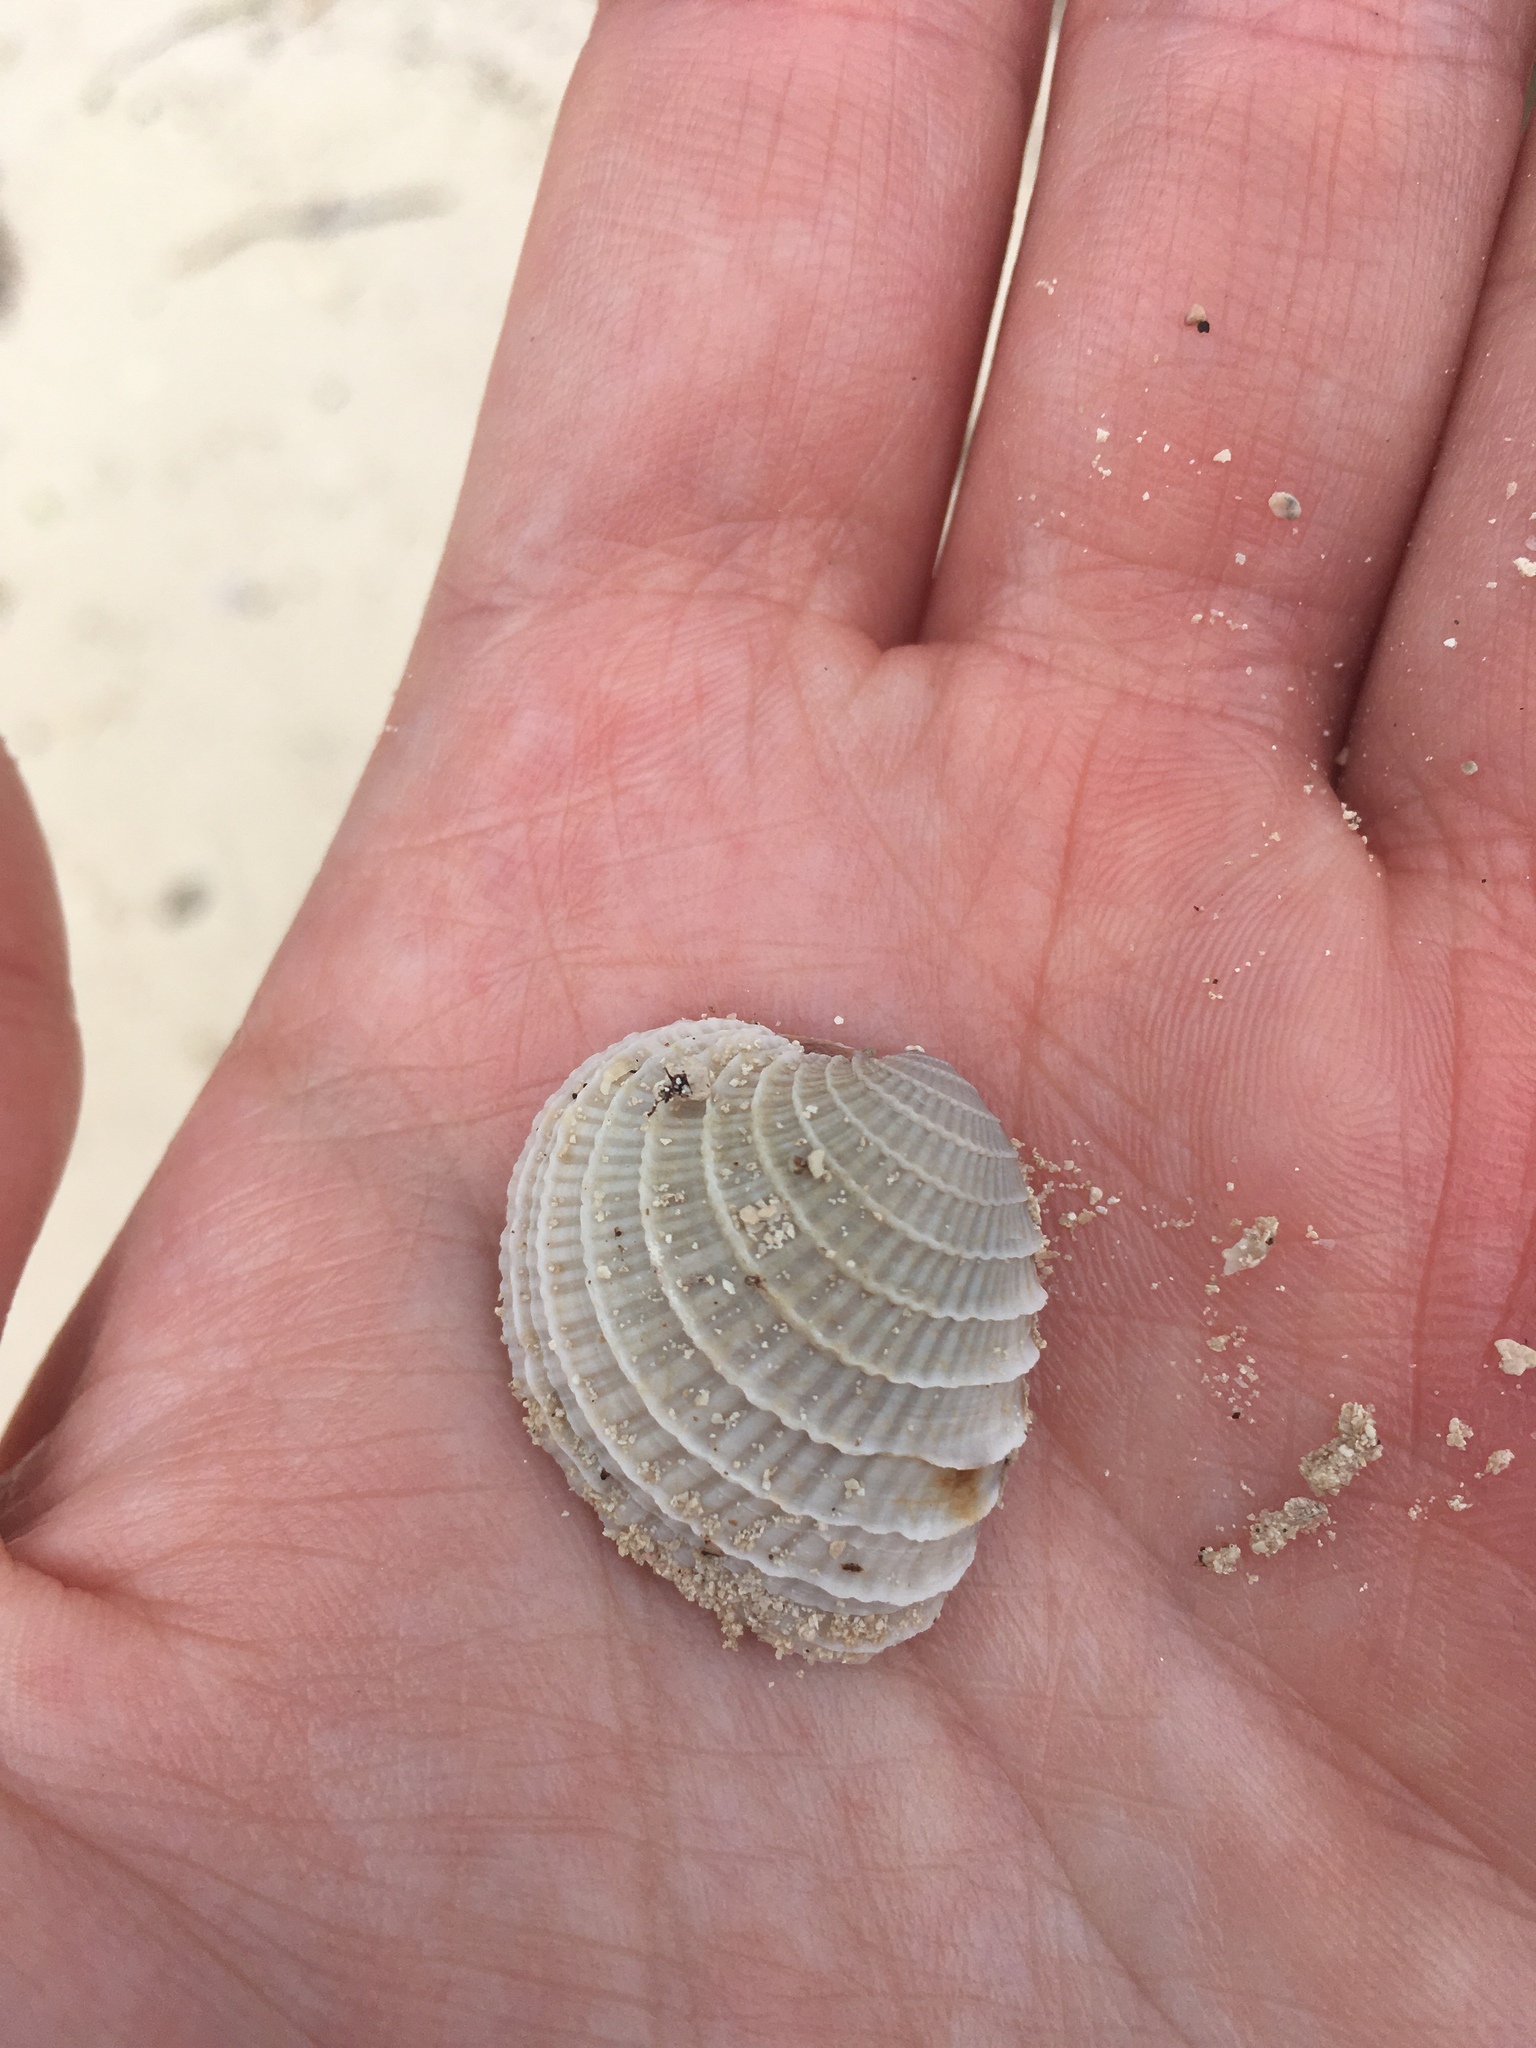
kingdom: Animalia
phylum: Mollusca
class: Bivalvia
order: Venerida
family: Veneridae
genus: Chione
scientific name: Chione elevata
